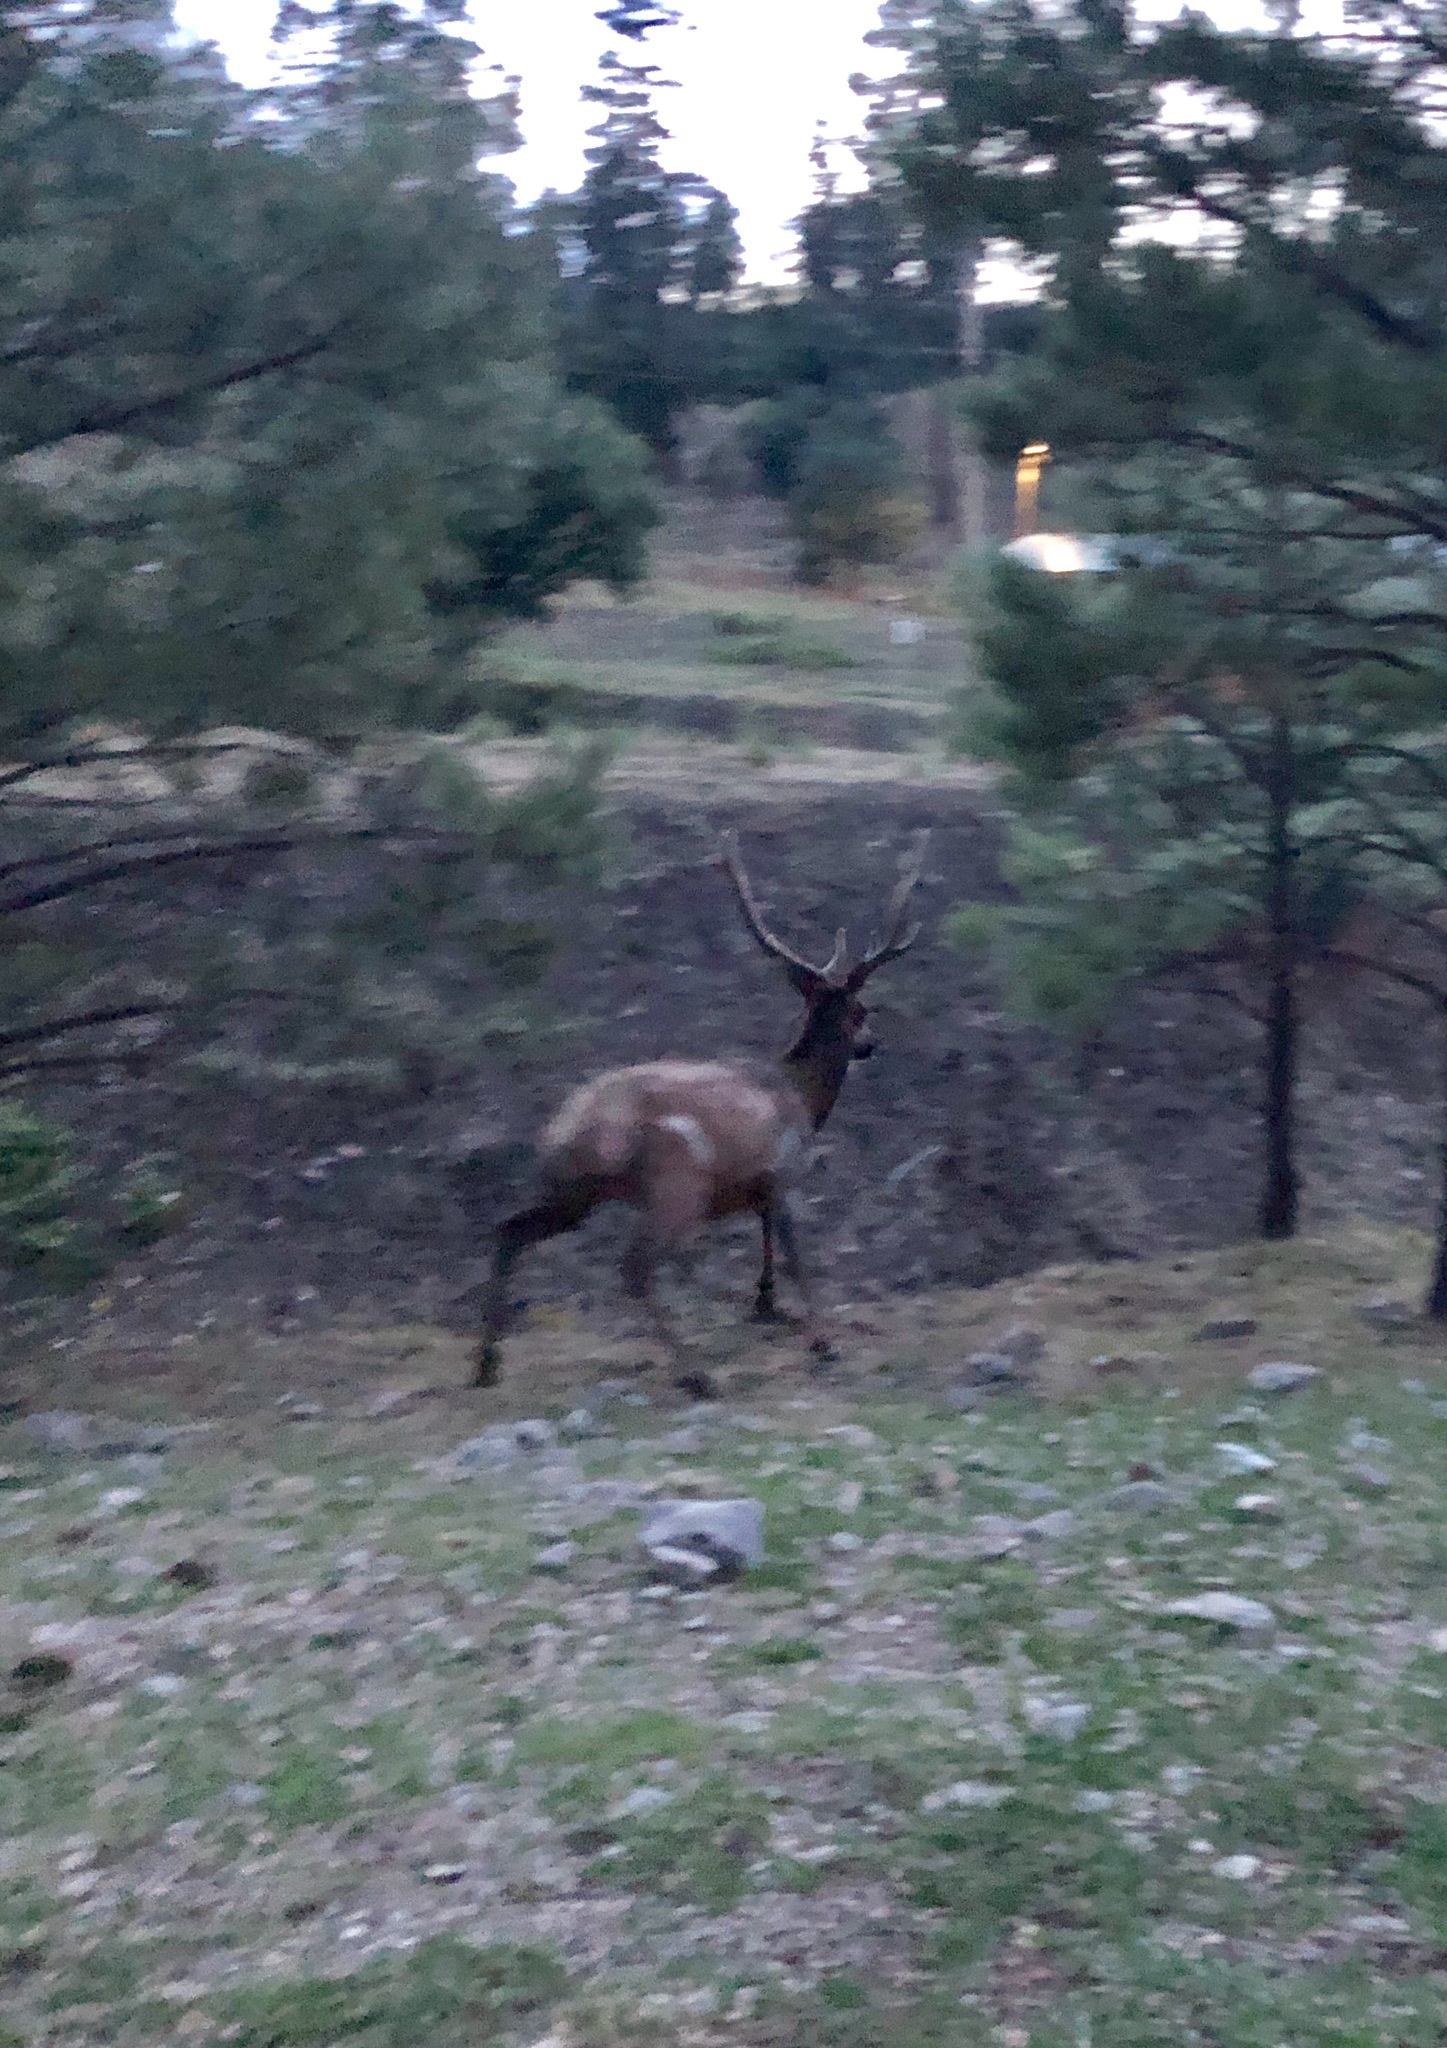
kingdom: Animalia
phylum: Chordata
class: Mammalia
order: Artiodactyla
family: Cervidae
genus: Cervus
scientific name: Cervus elaphus
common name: Red deer
